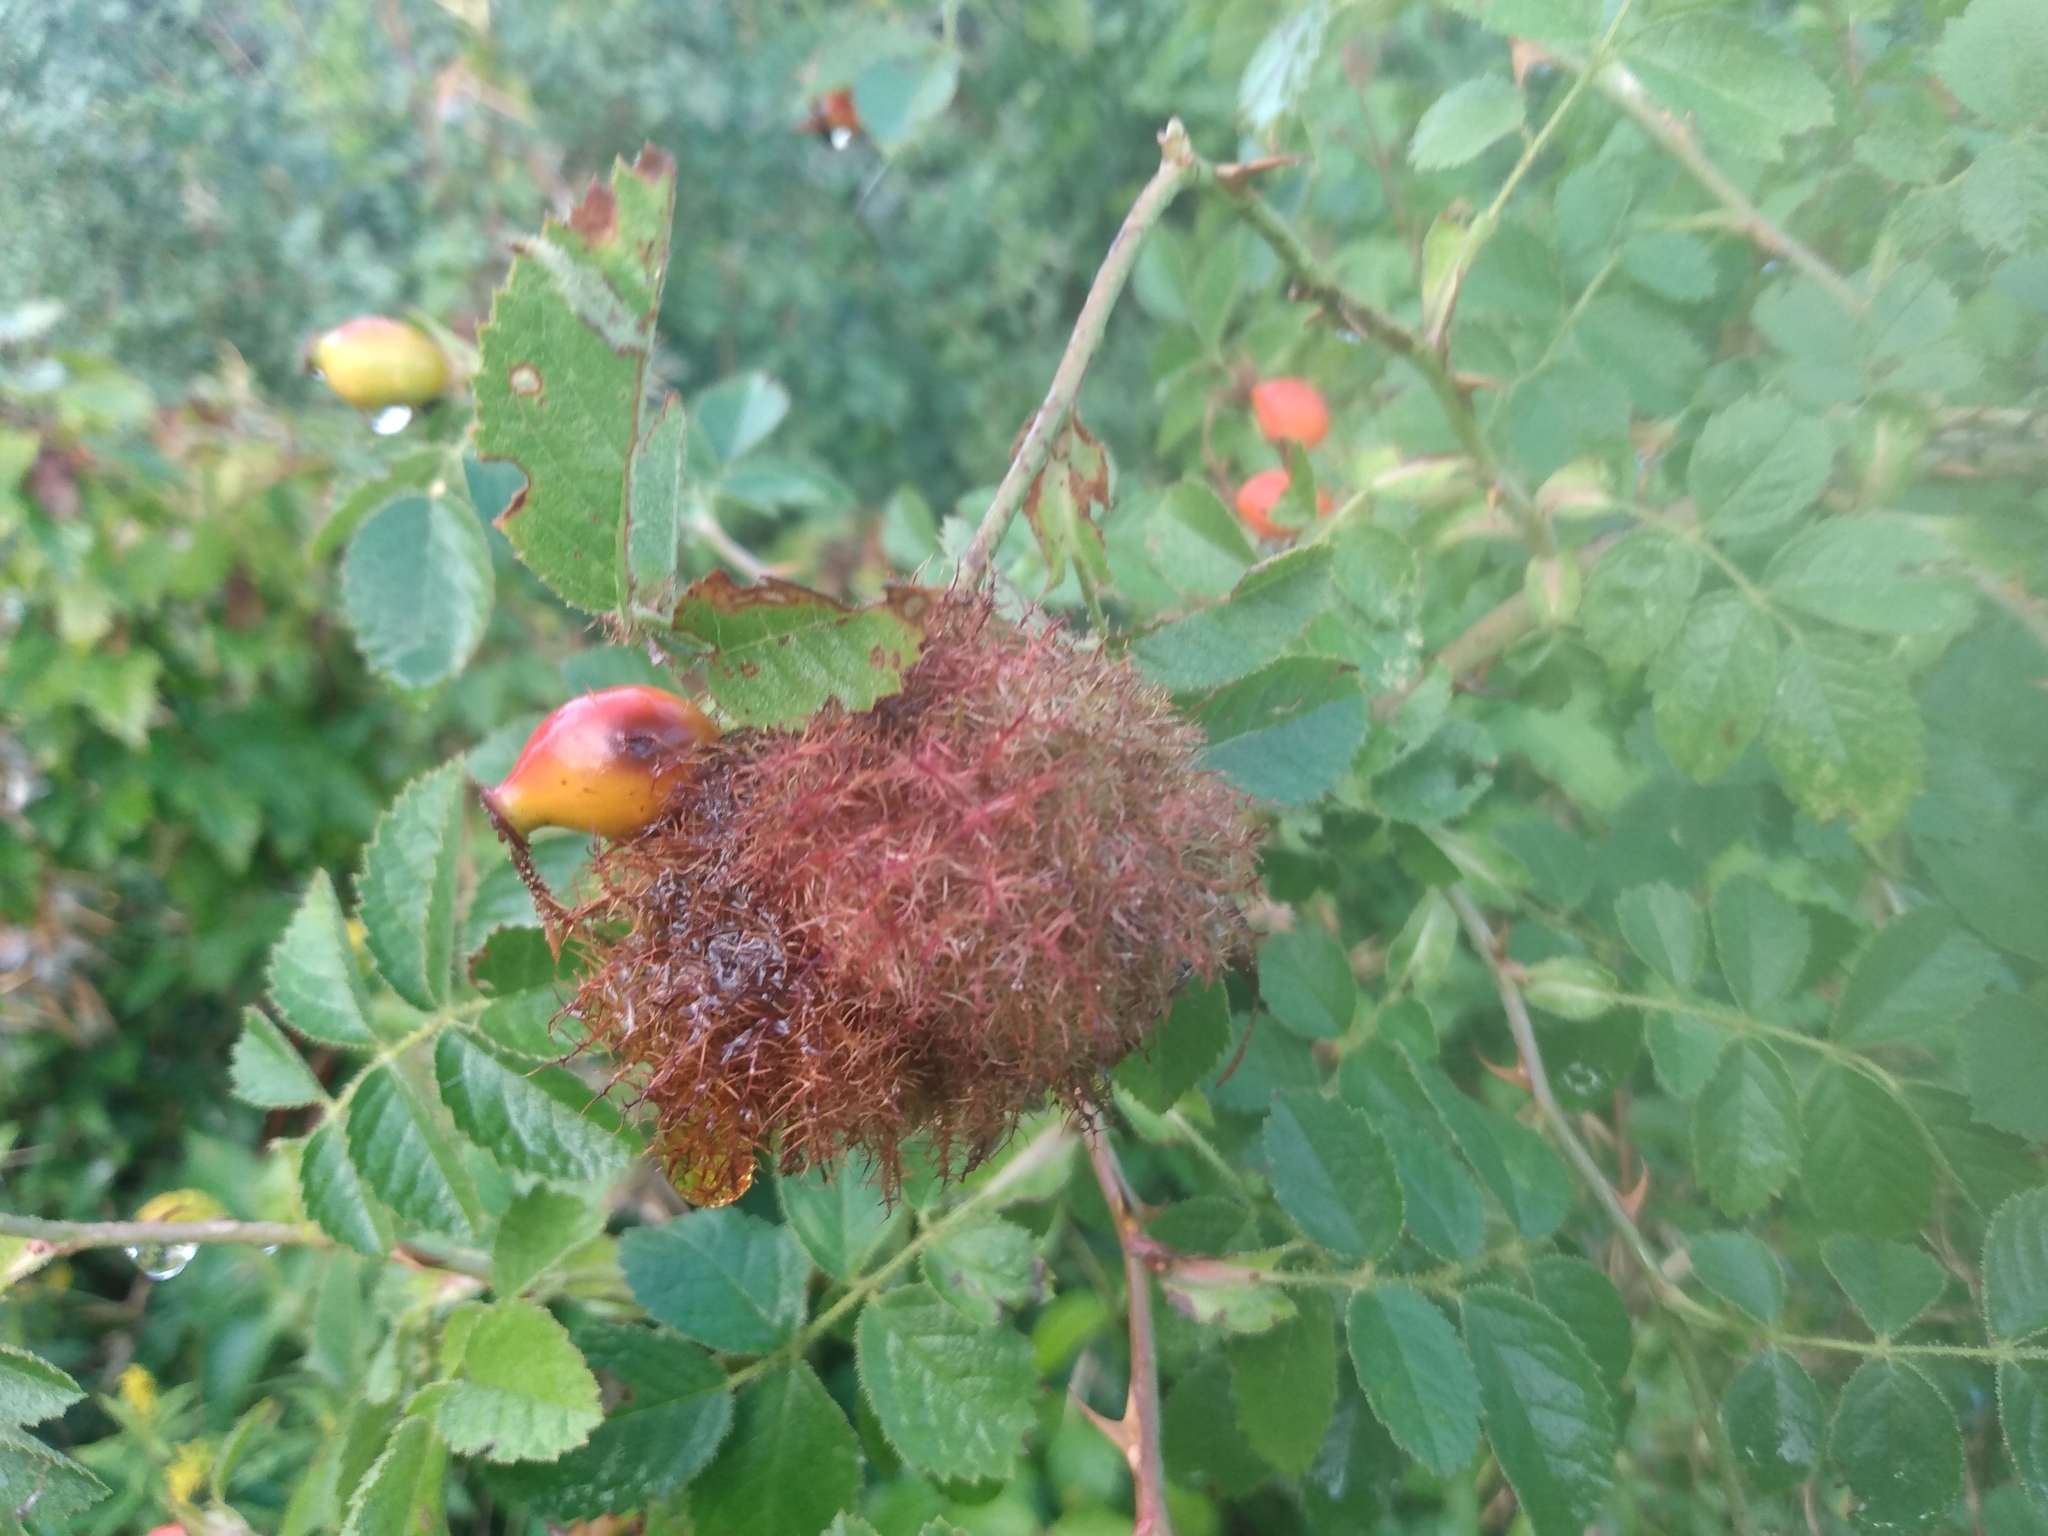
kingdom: Animalia
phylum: Arthropoda
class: Insecta
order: Hymenoptera
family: Cynipidae
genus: Diplolepis
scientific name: Diplolepis rosae
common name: Bedeguar gall
